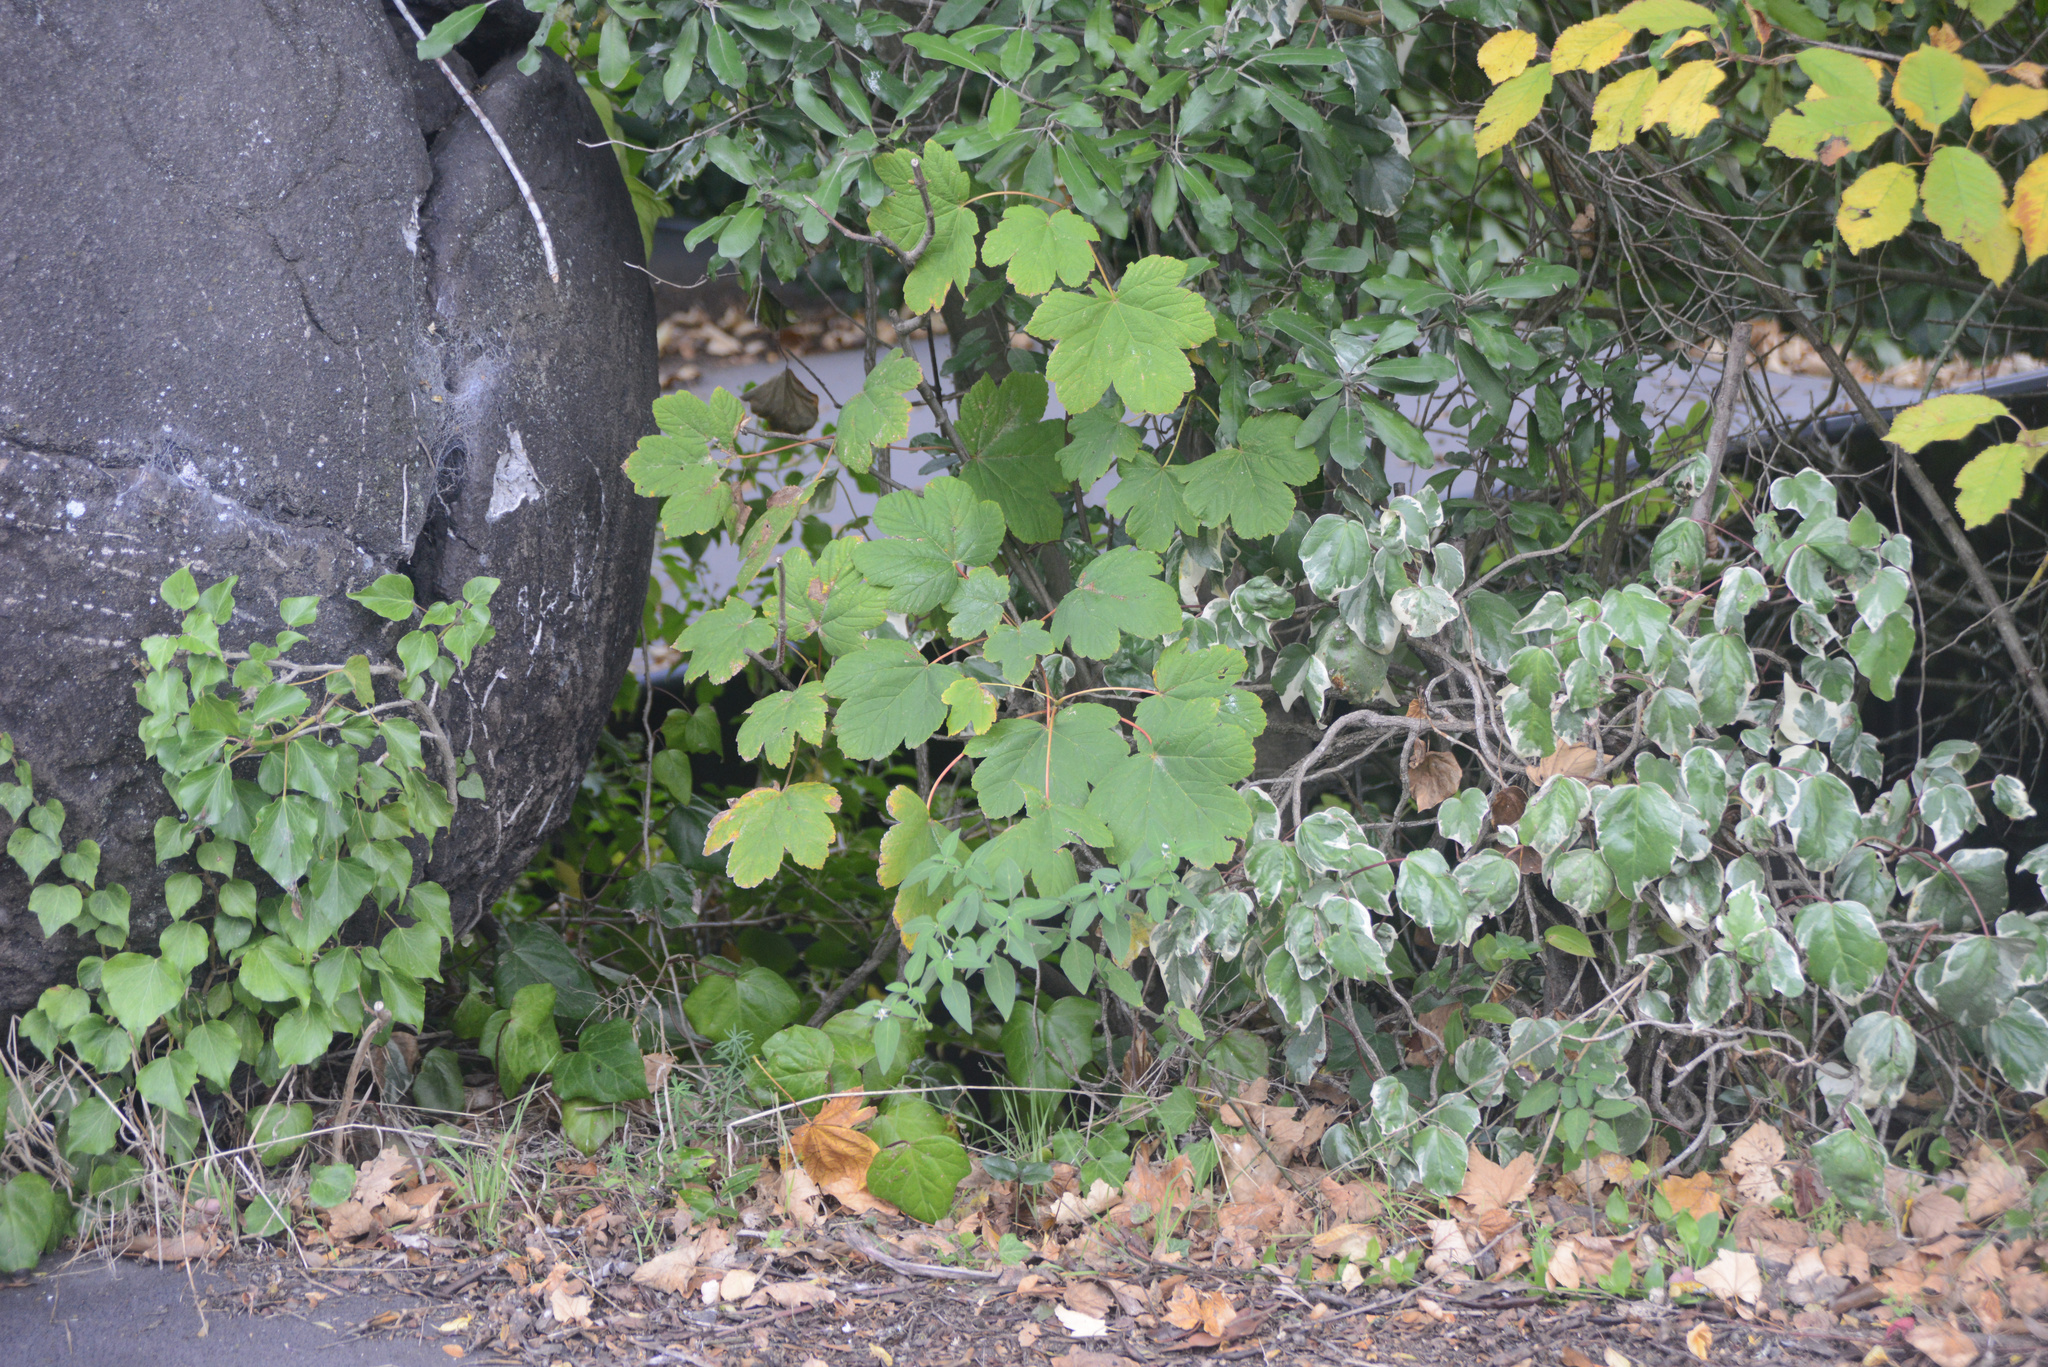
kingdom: Plantae
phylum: Tracheophyta
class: Magnoliopsida
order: Sapindales
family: Sapindaceae
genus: Acer
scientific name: Acer pseudoplatanus
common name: Sycamore
